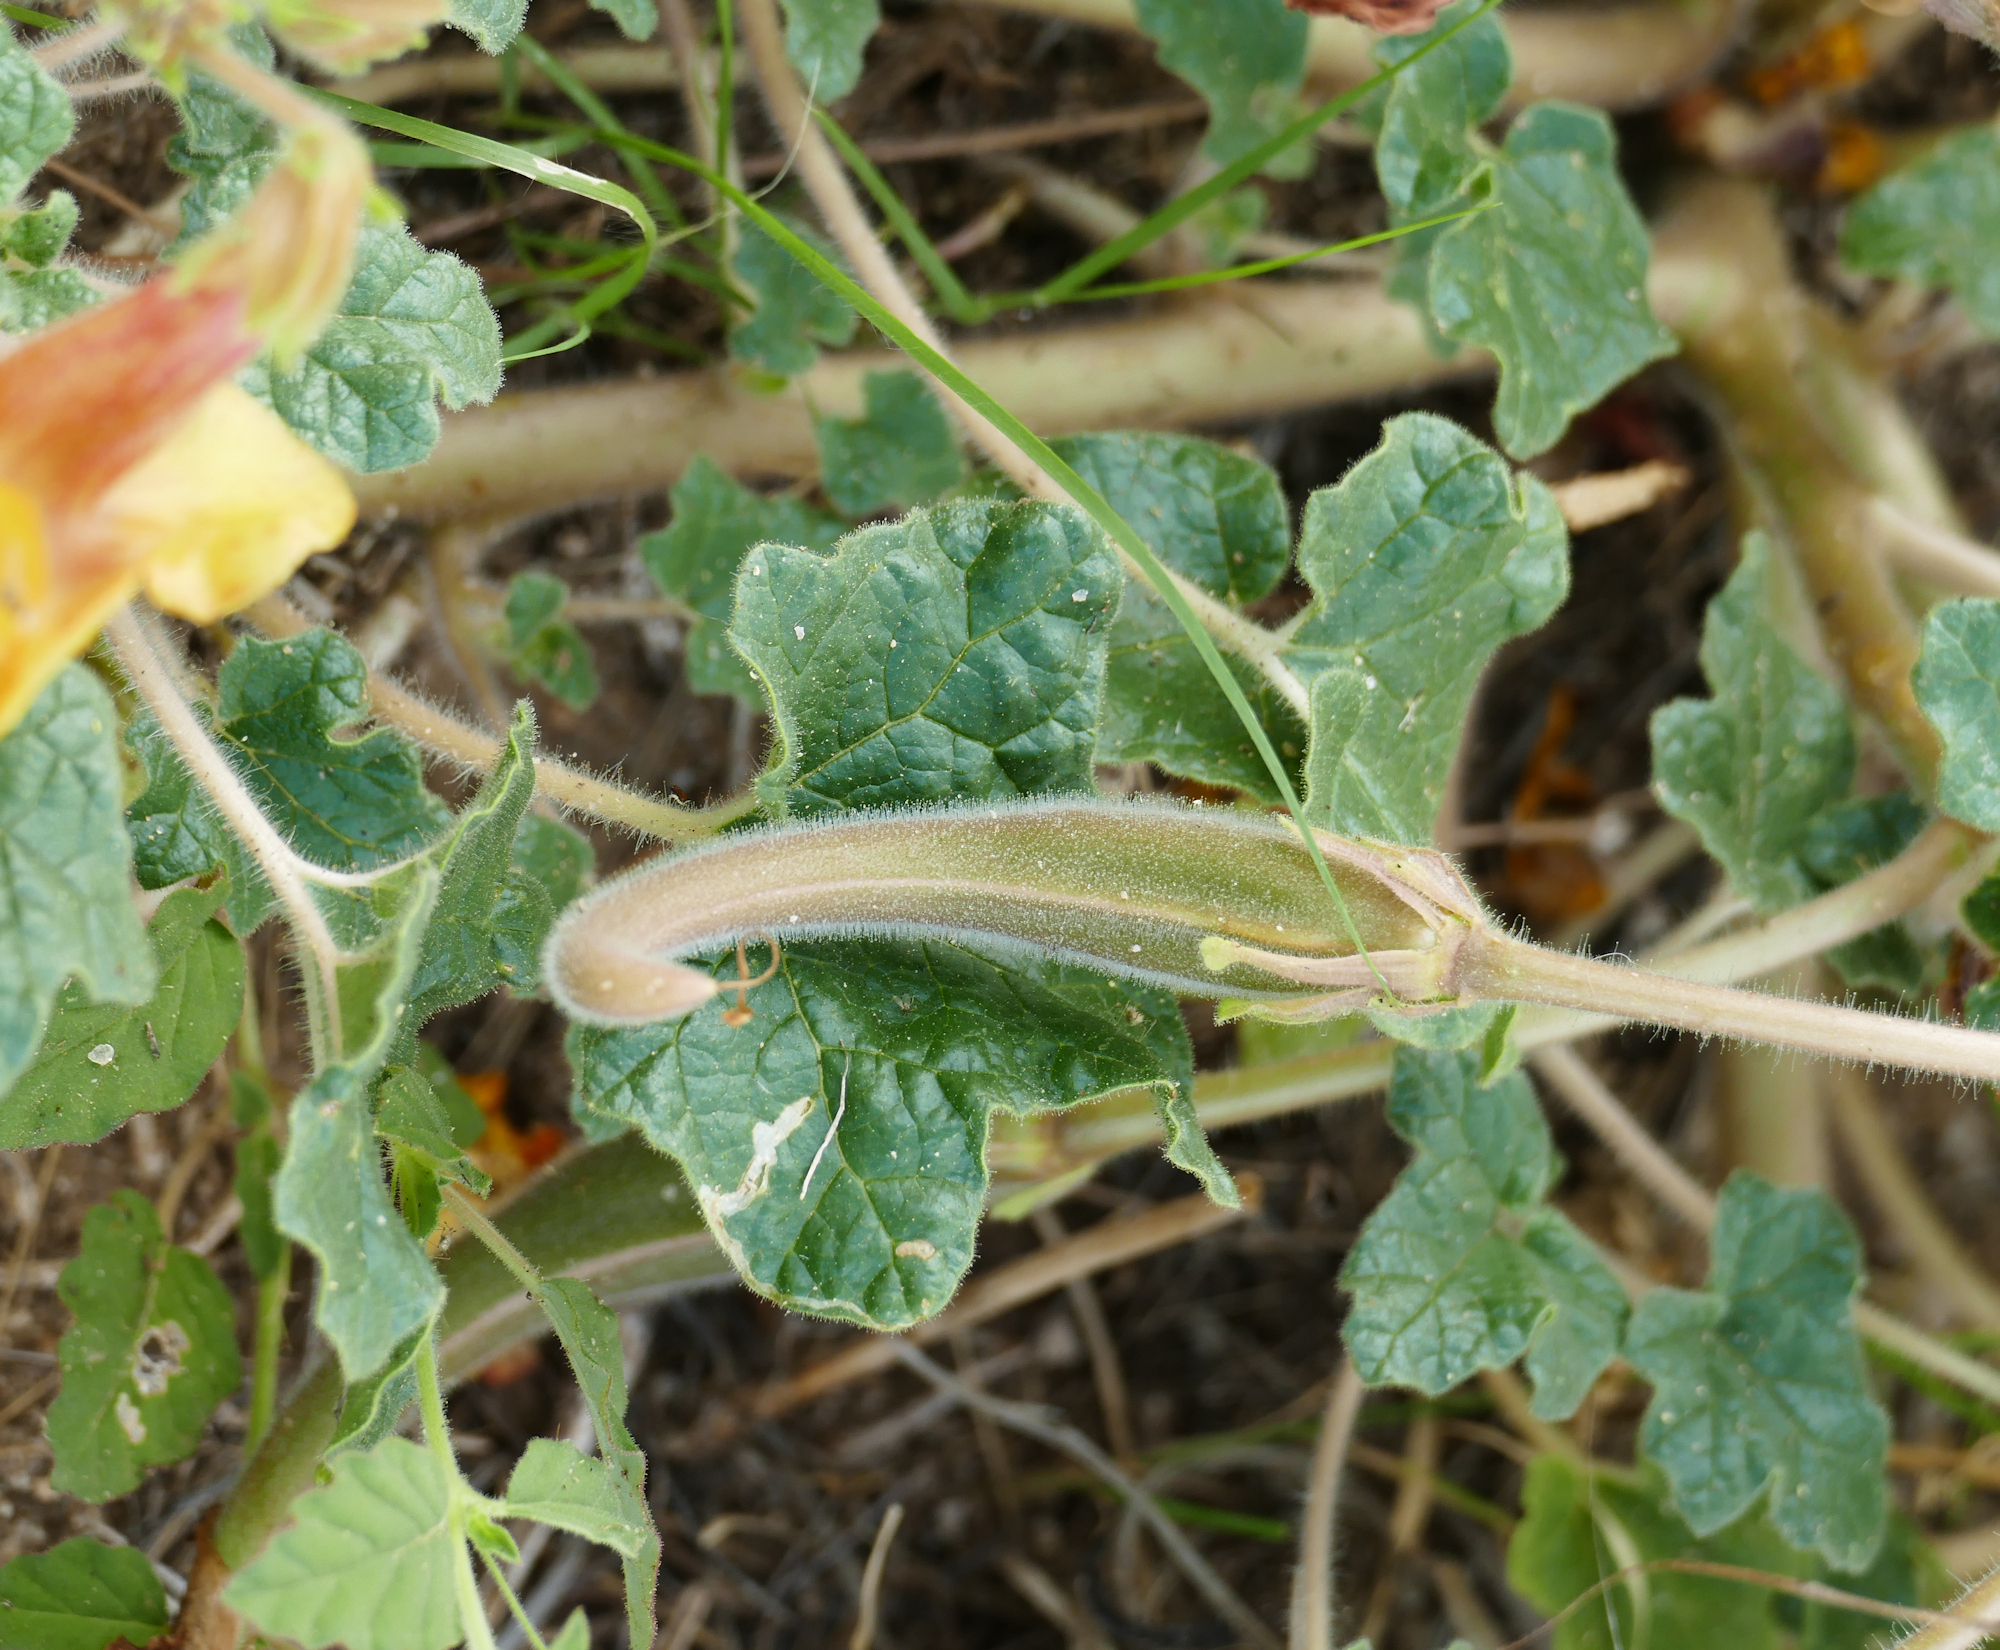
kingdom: Plantae
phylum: Tracheophyta
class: Magnoliopsida
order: Lamiales
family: Martyniaceae
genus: Proboscidea
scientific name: Proboscidea althaeifolia
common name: Desert unicorn-plant
